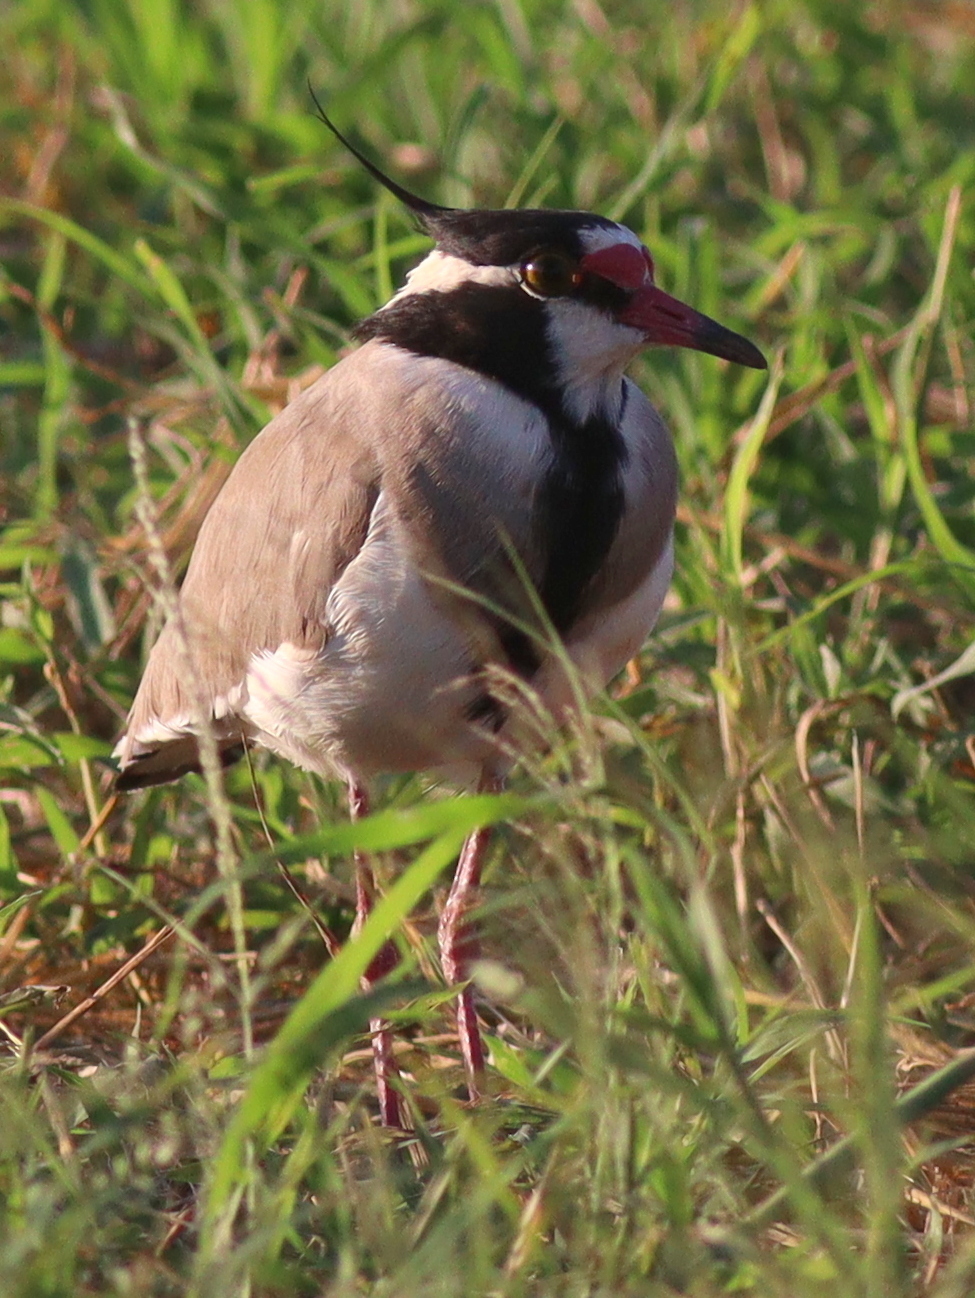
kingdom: Animalia
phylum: Chordata
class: Aves
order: Charadriiformes
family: Charadriidae
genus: Vanellus
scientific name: Vanellus tectus
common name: Black-headed lapwing
